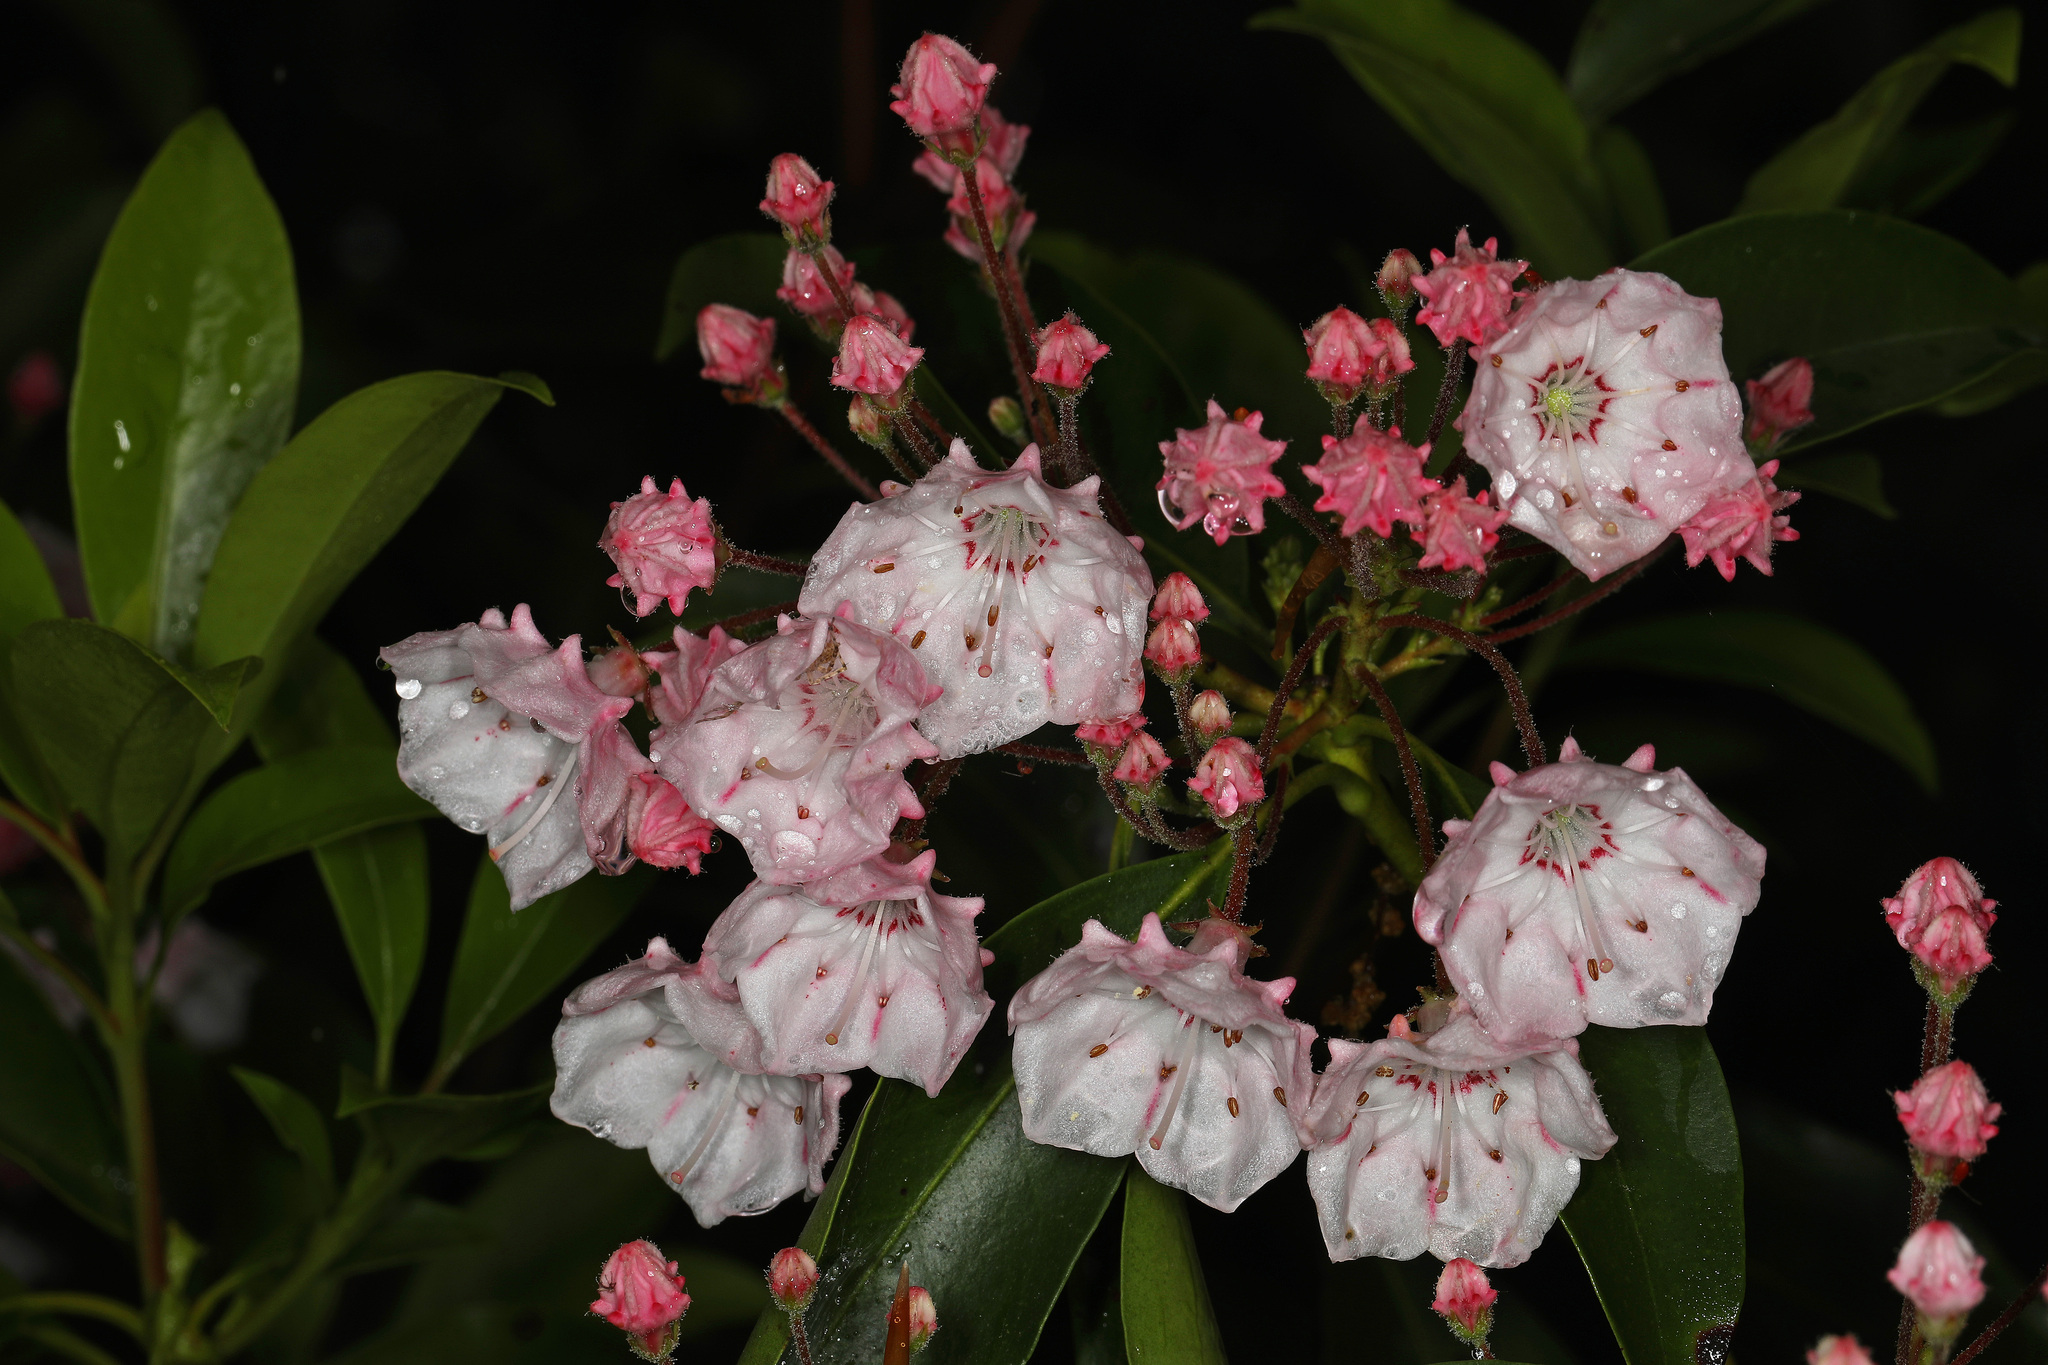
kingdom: Plantae
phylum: Tracheophyta
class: Magnoliopsida
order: Ericales
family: Ericaceae
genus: Kalmia
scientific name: Kalmia latifolia
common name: Mountain-laurel
